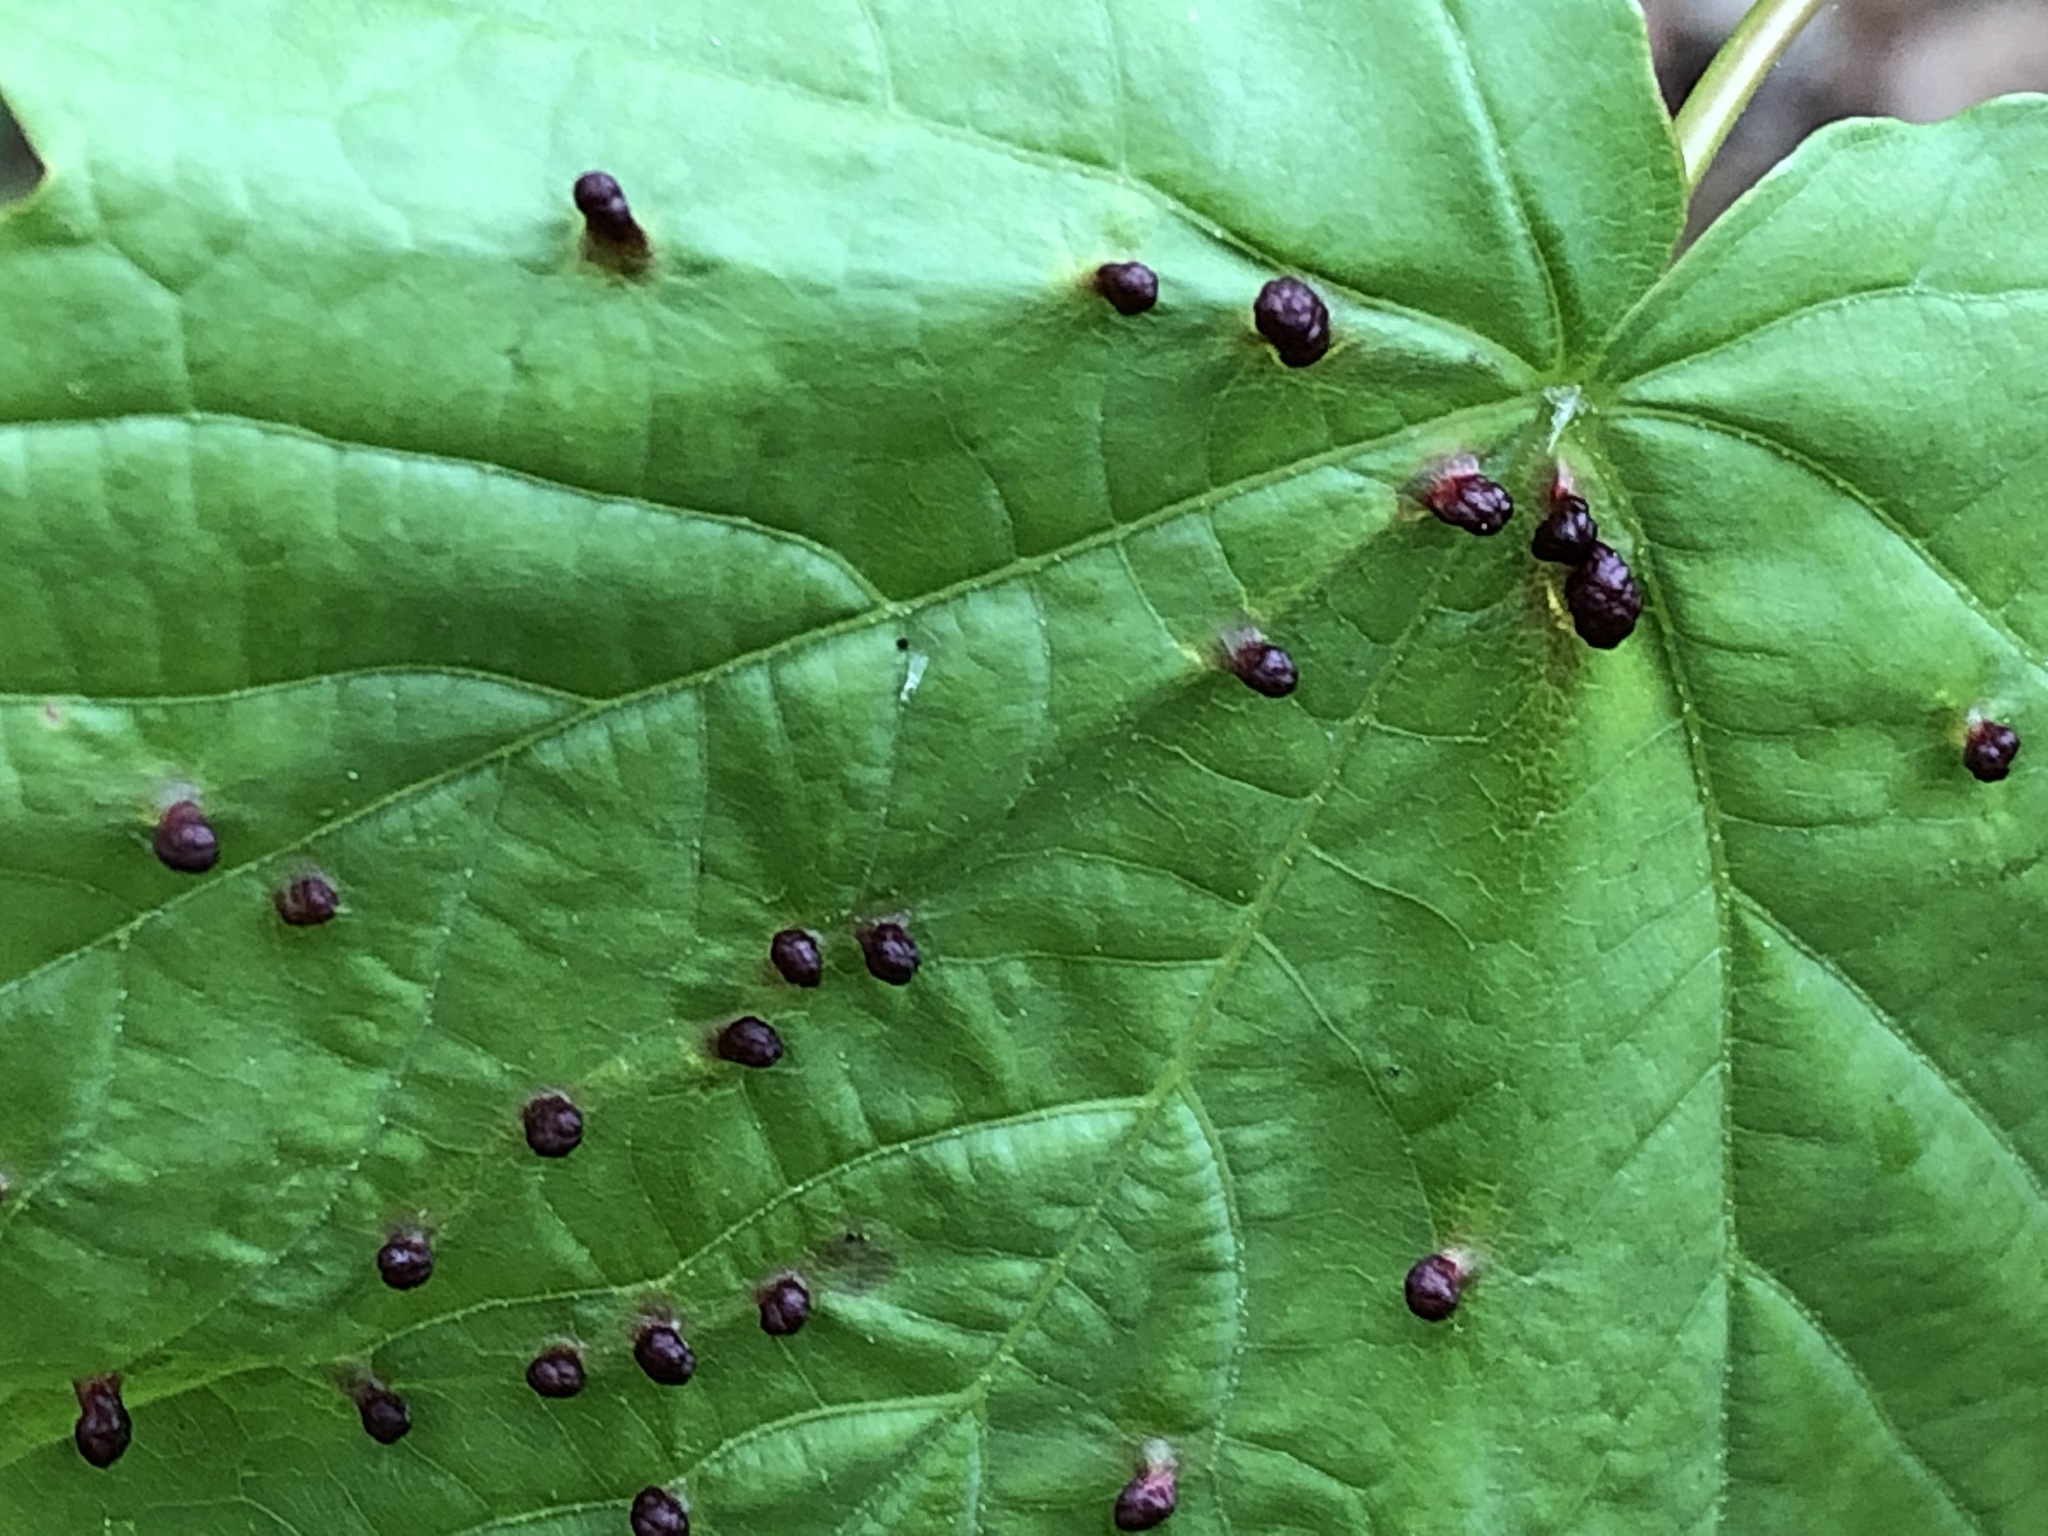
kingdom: Animalia
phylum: Arthropoda
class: Arachnida
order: Trombidiformes
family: Eriophyidae
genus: Eriophyes
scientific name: Eriophyes tiliae
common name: Red nail gall mite
